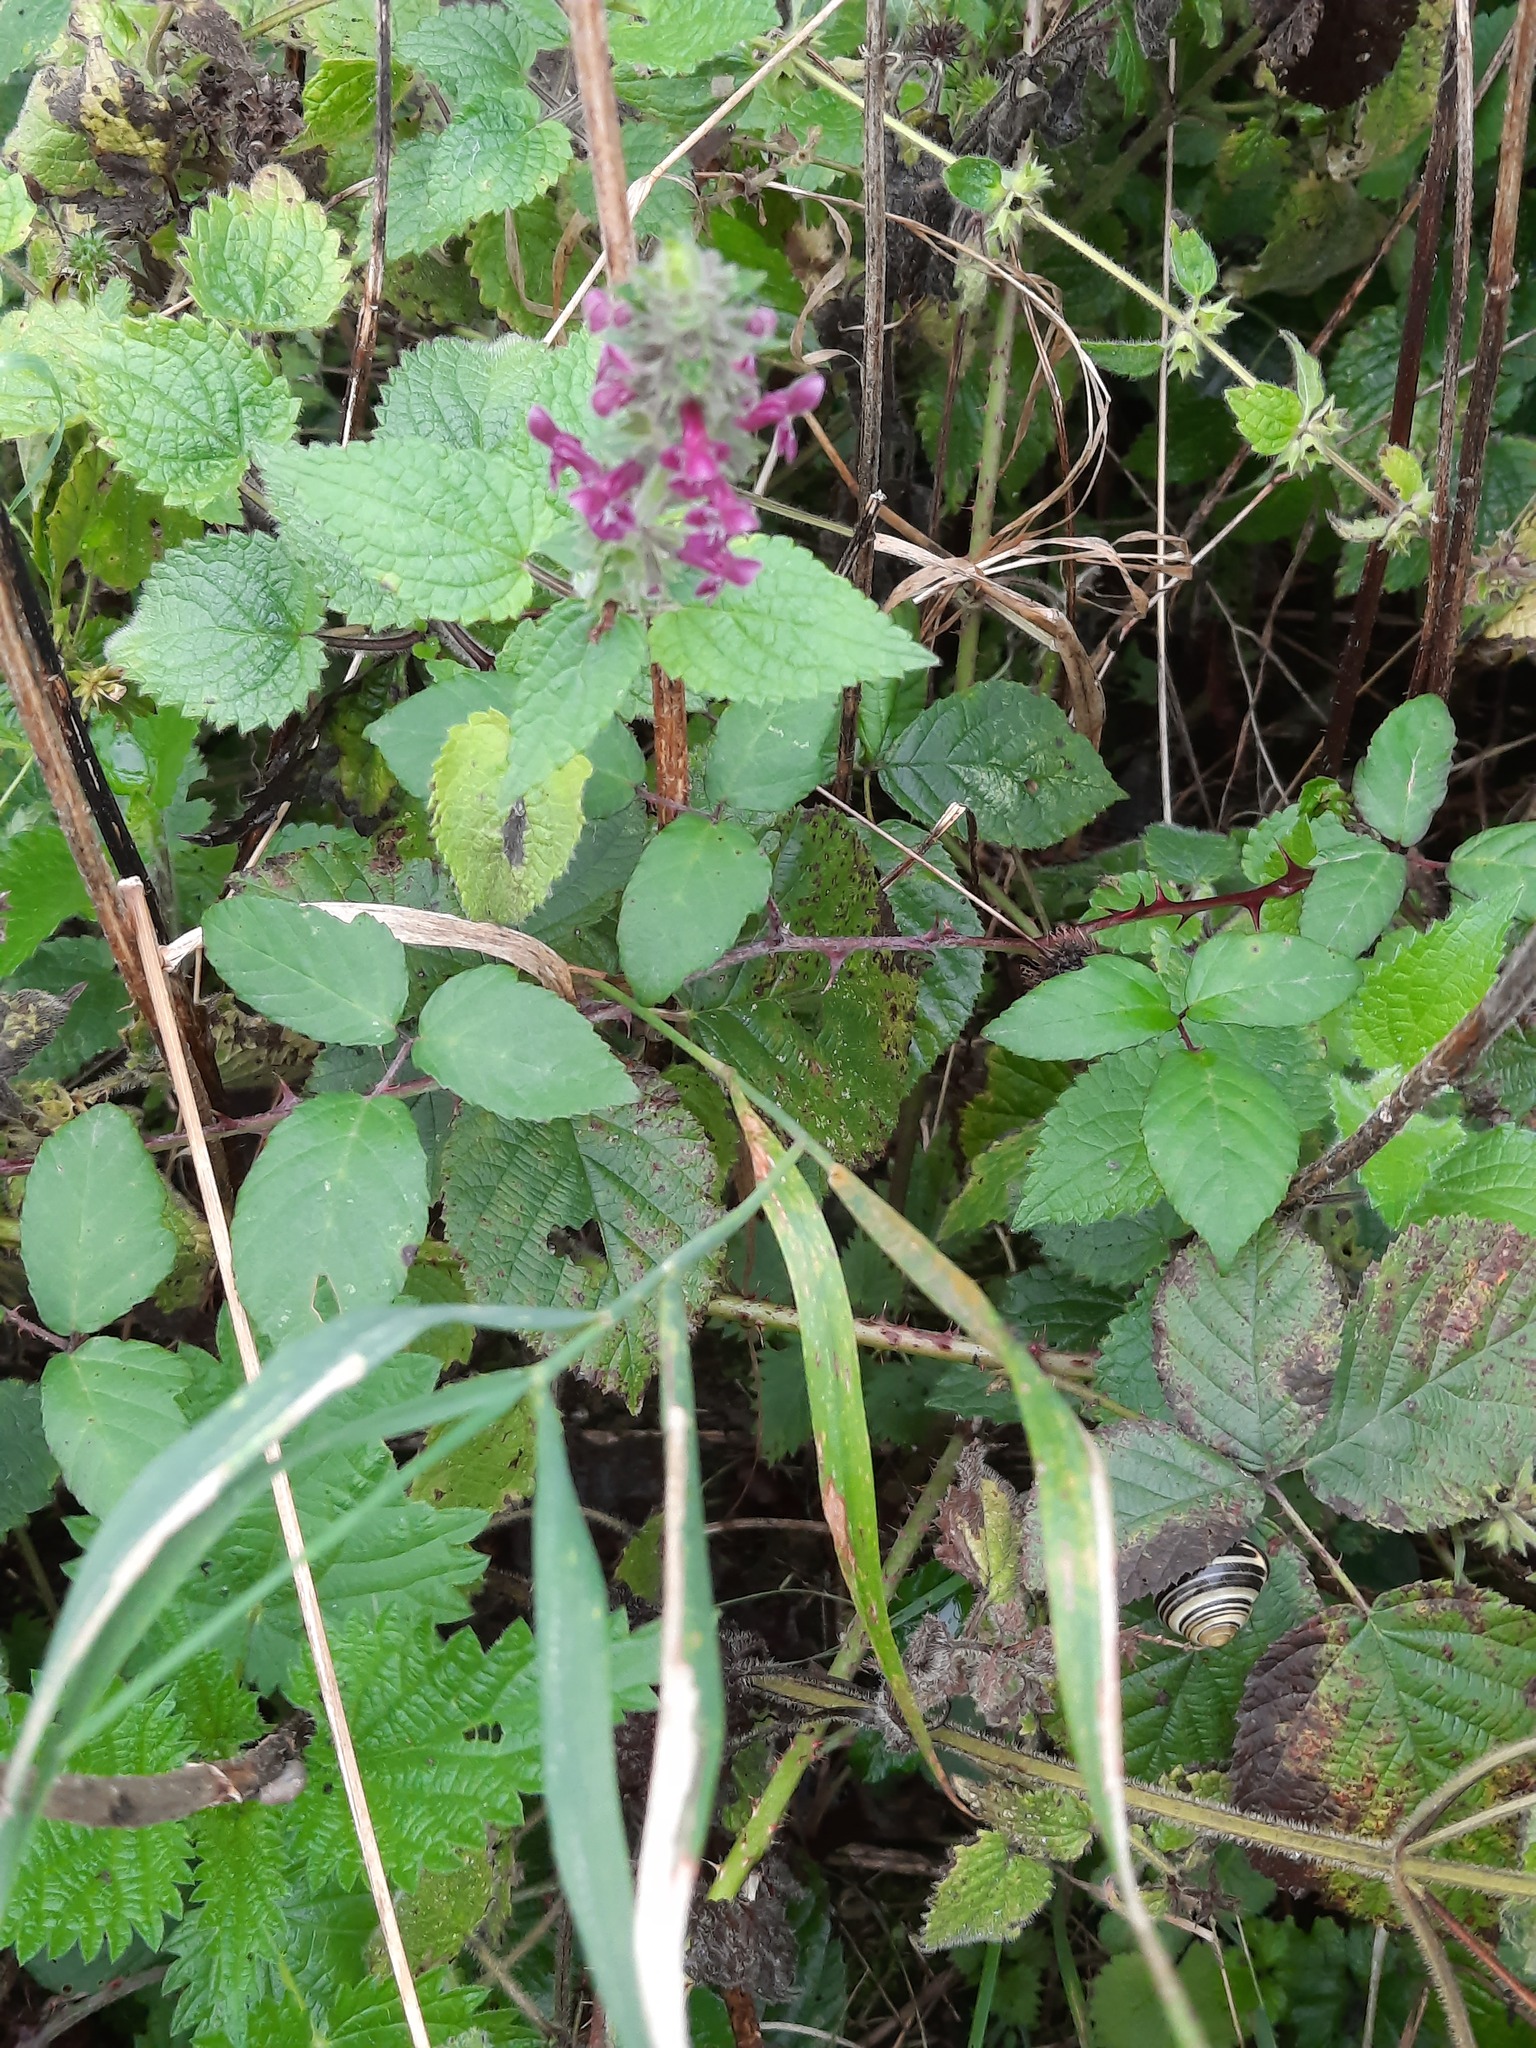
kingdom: Plantae
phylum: Tracheophyta
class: Magnoliopsida
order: Lamiales
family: Lamiaceae
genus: Stachys
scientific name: Stachys sylvatica
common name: Hedge woundwort
